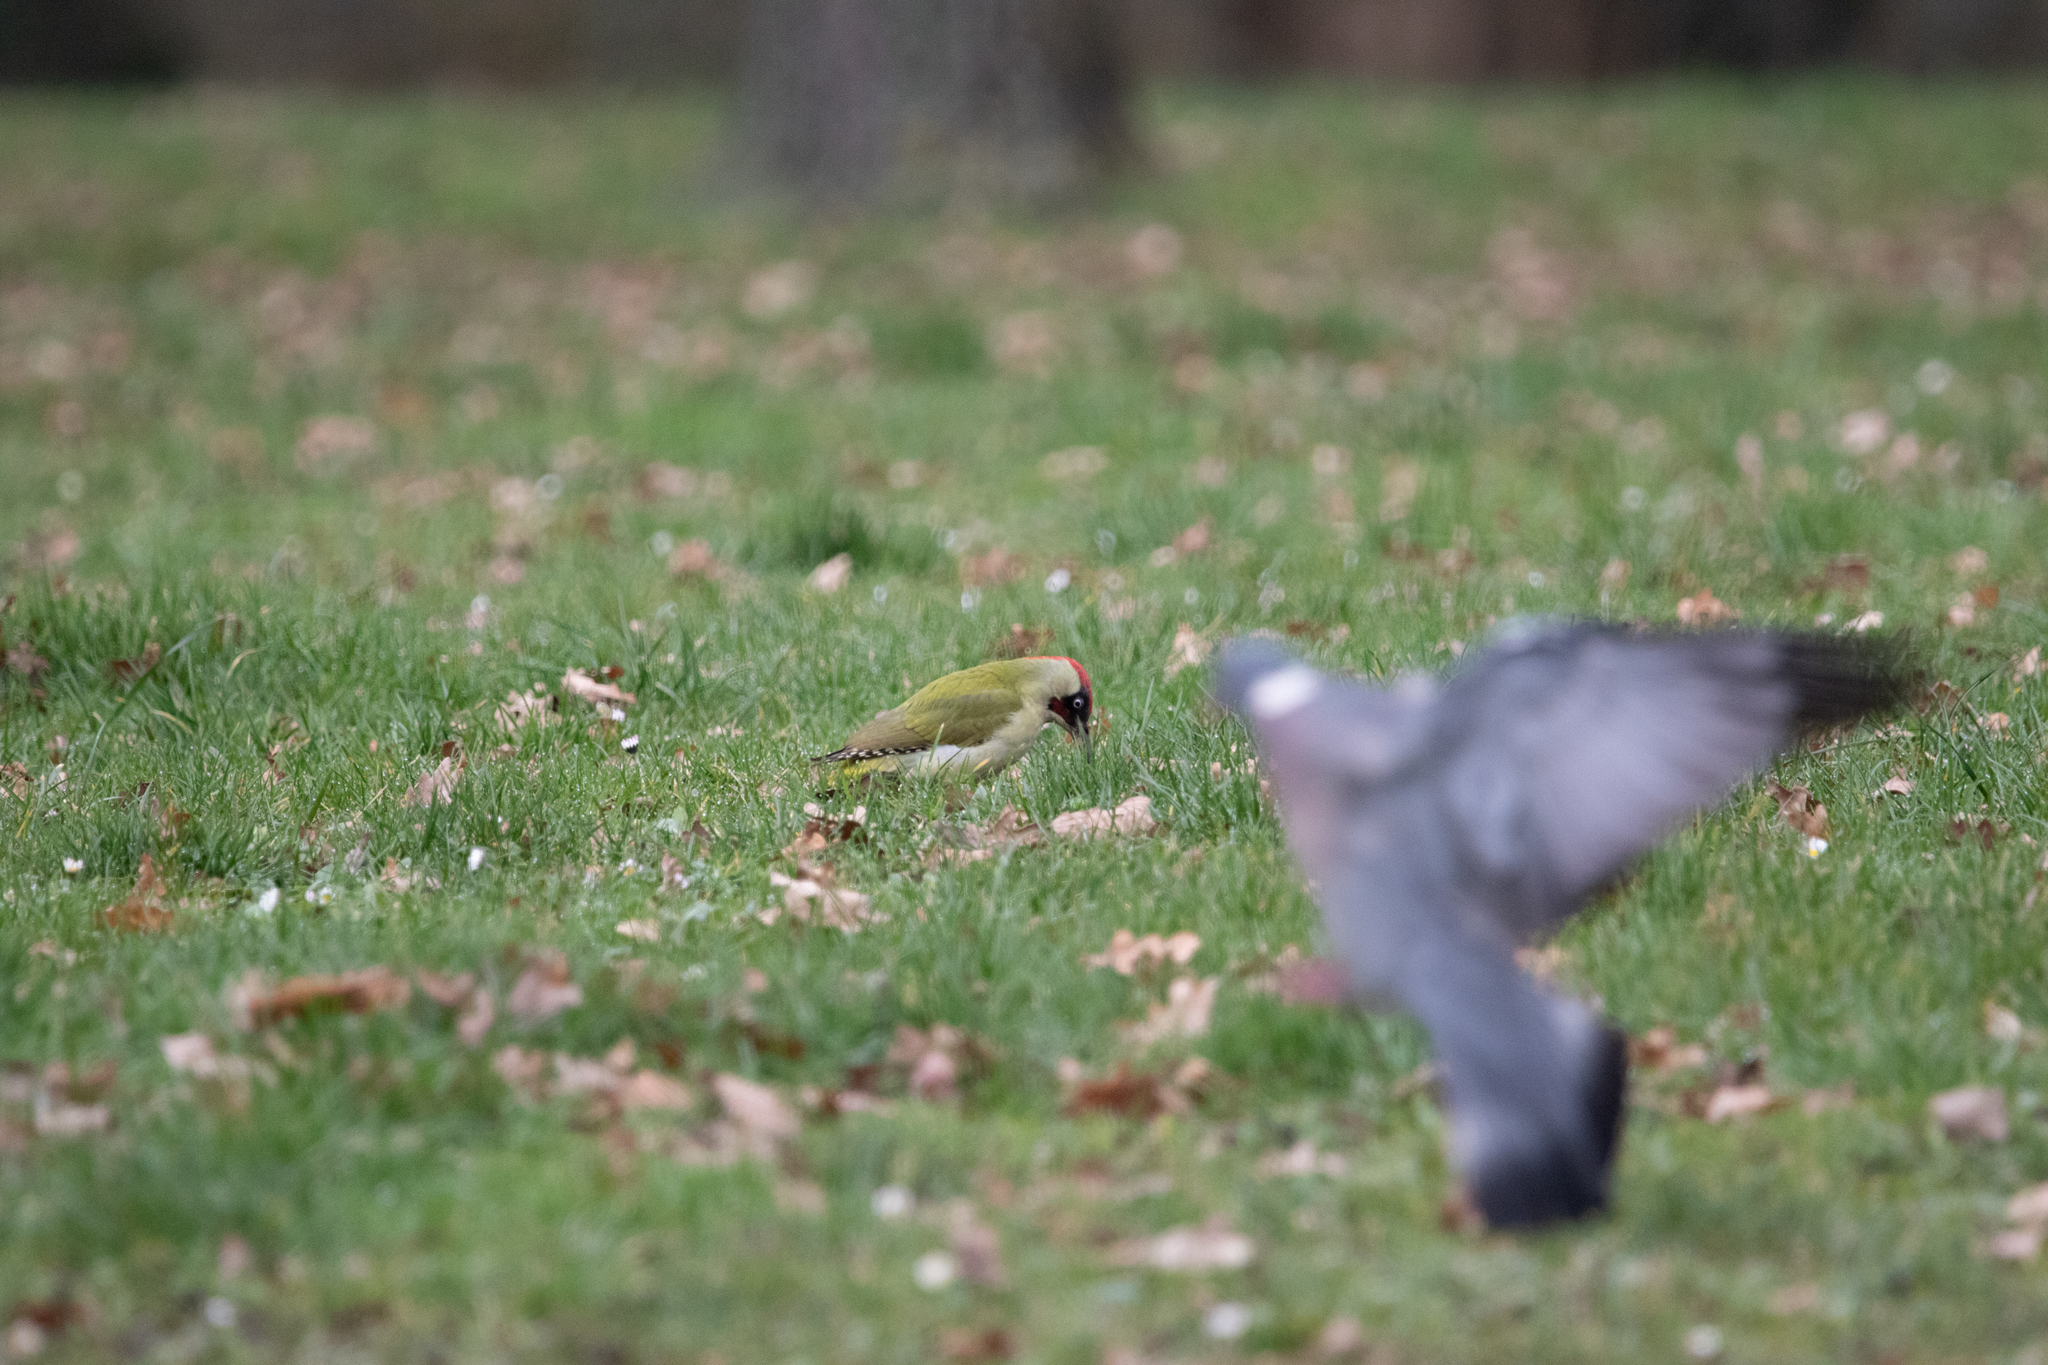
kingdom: Animalia
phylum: Chordata
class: Aves
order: Columbiformes
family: Columbidae
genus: Columba
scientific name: Columba palumbus
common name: Common wood pigeon
